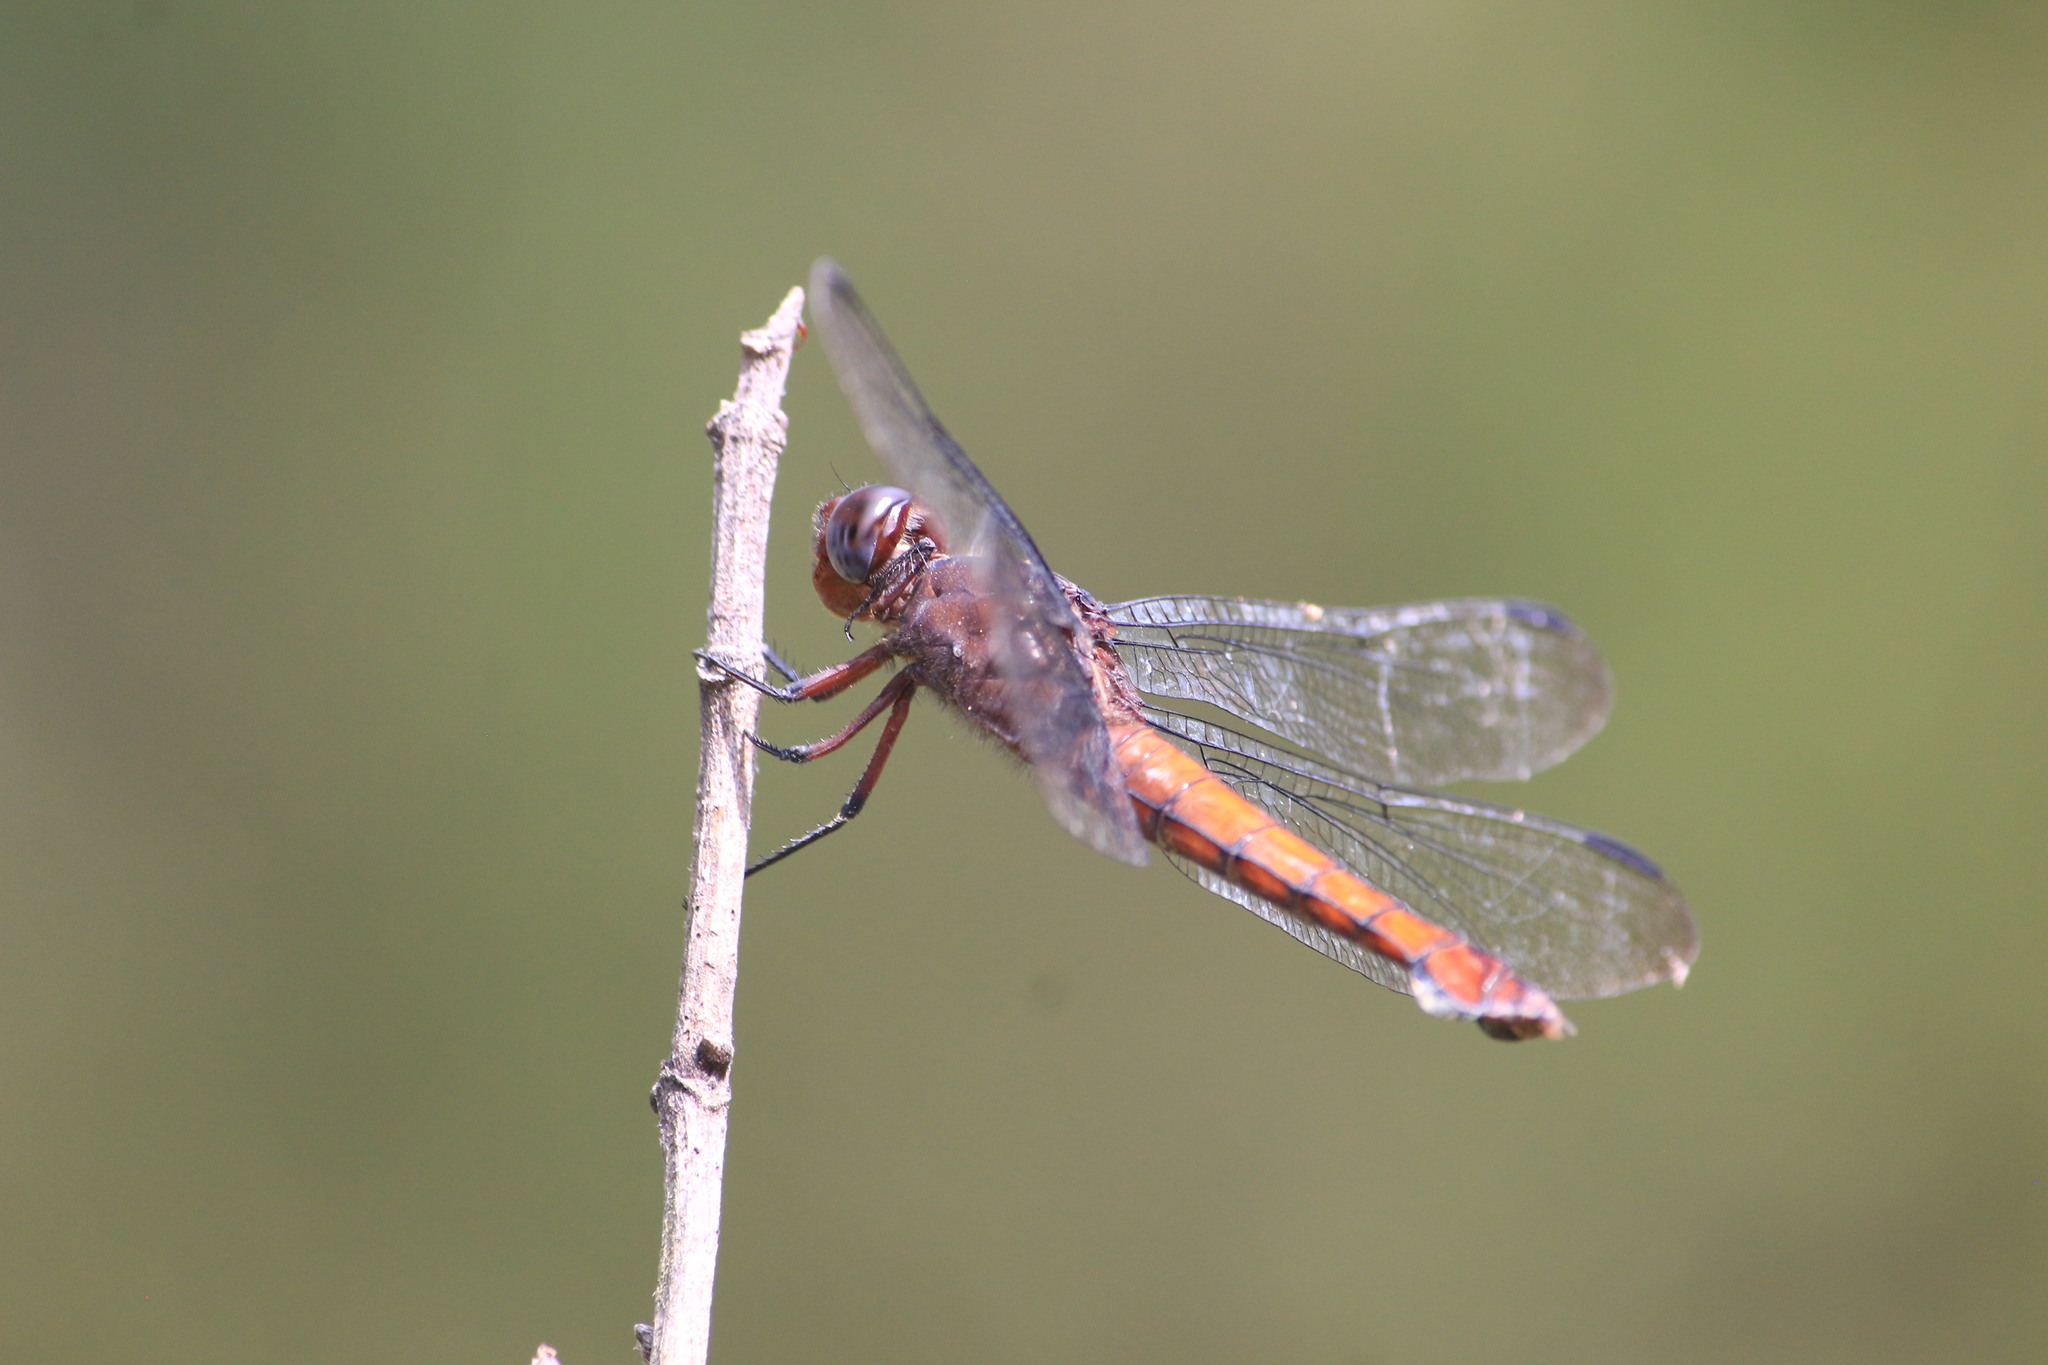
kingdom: Animalia
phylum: Arthropoda
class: Insecta
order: Odonata
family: Libellulidae
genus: Libellula
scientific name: Libellula herculea
